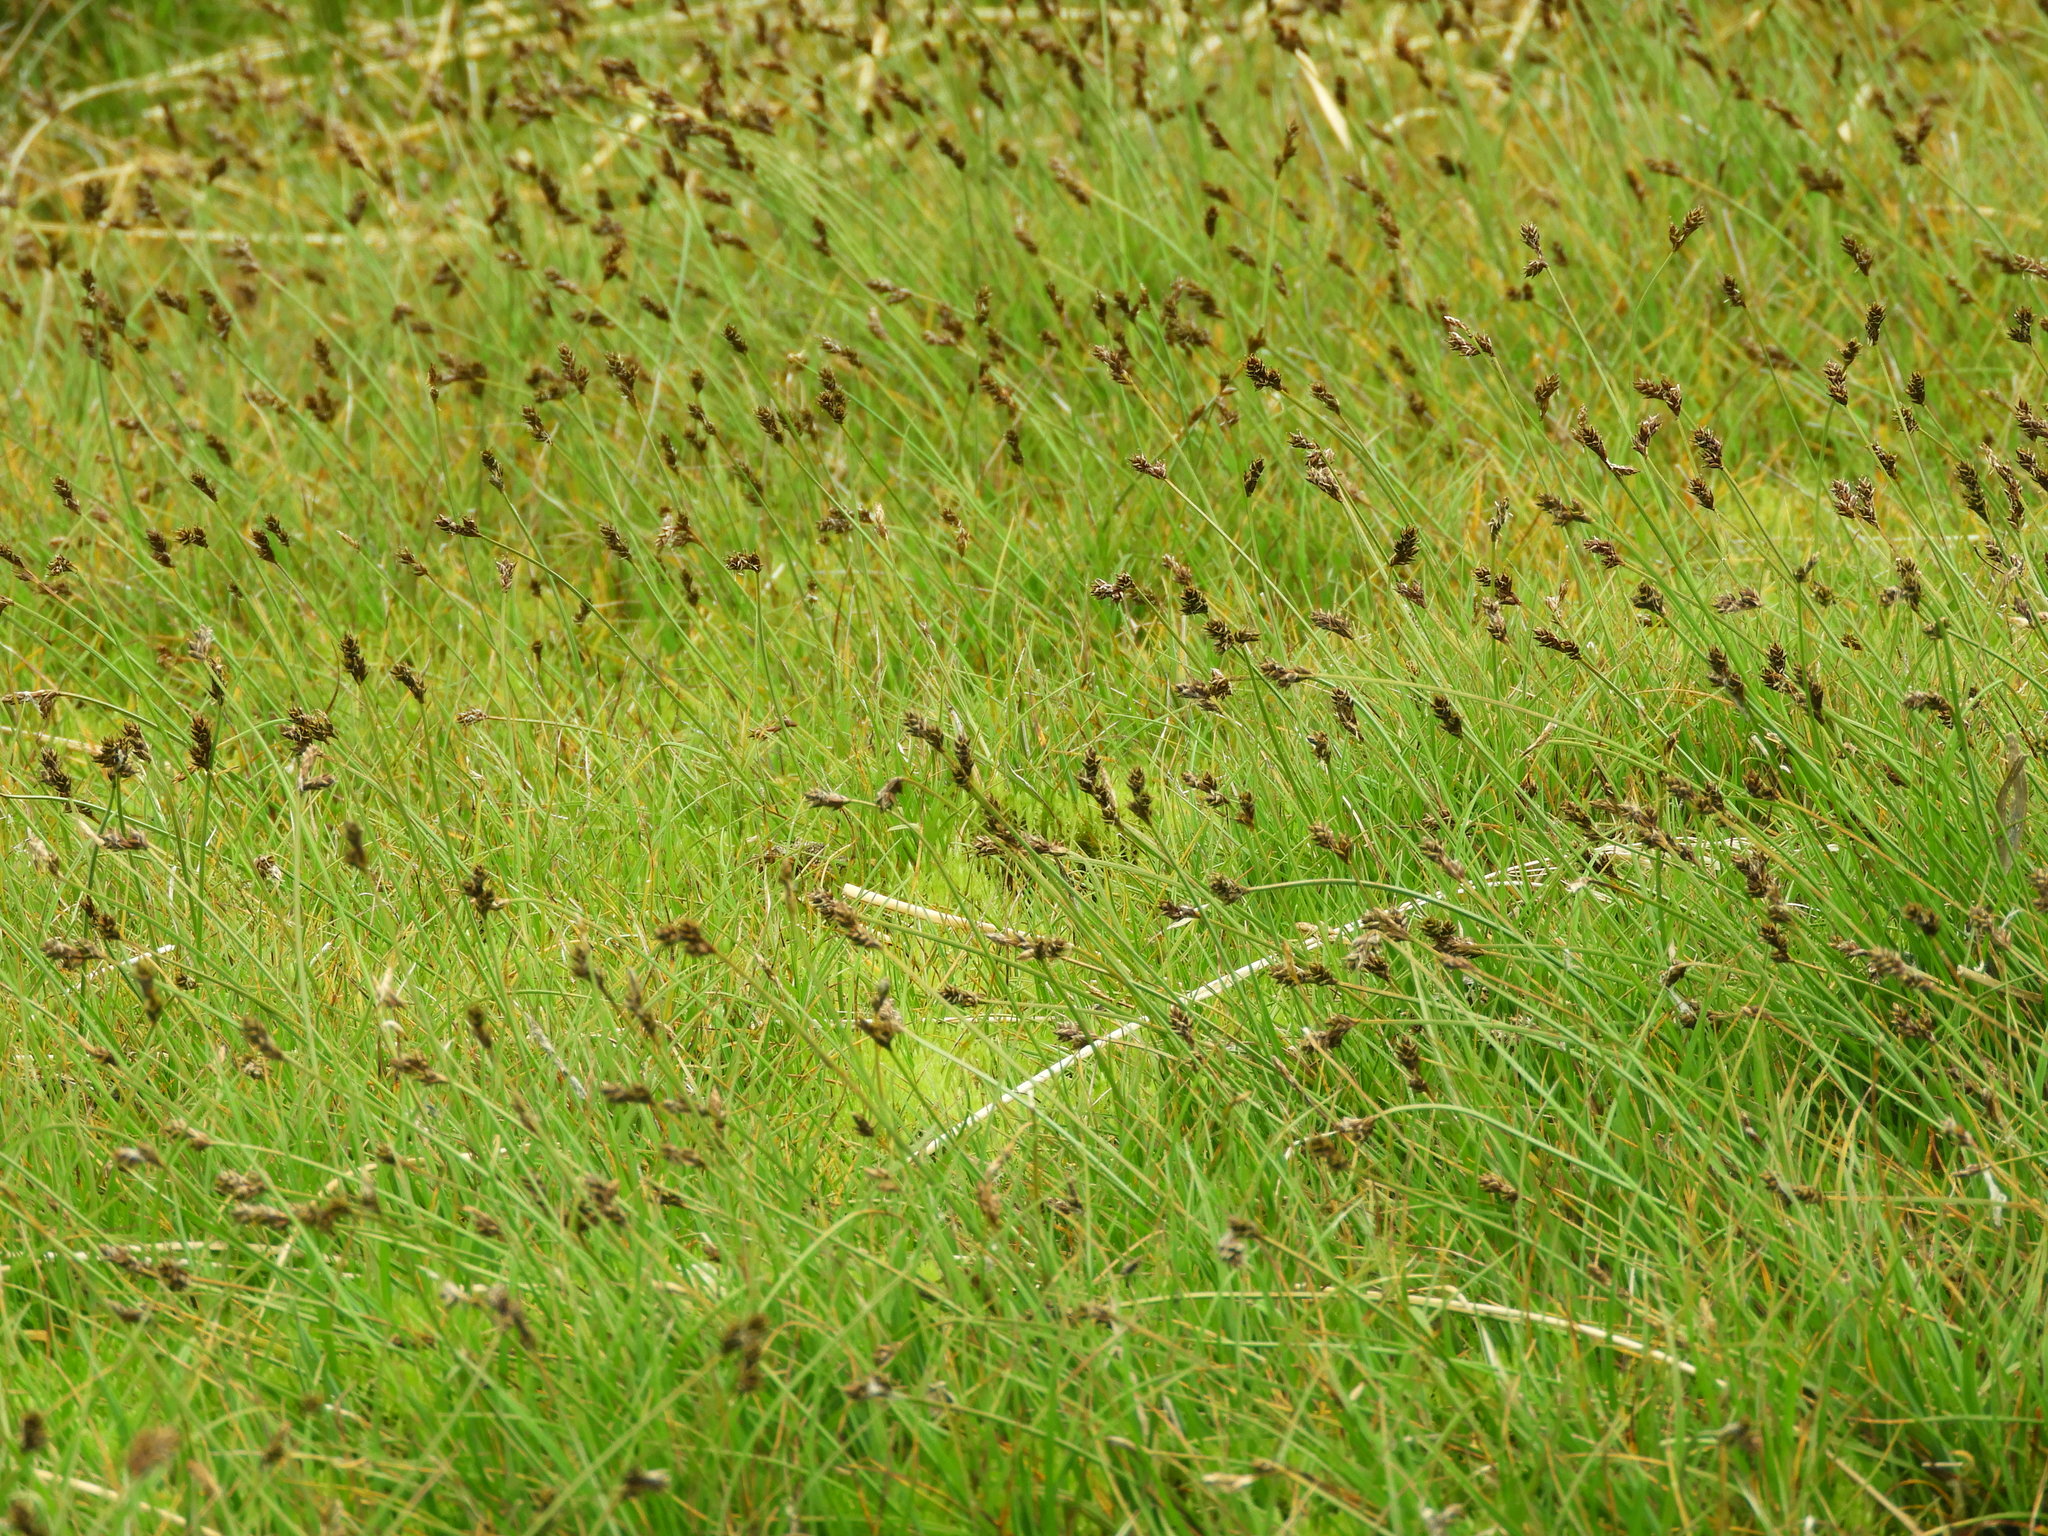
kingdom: Plantae
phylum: Tracheophyta
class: Liliopsida
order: Poales
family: Cyperaceae
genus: Carex
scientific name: Carex lachenalii
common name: Hare's-foot sedge
